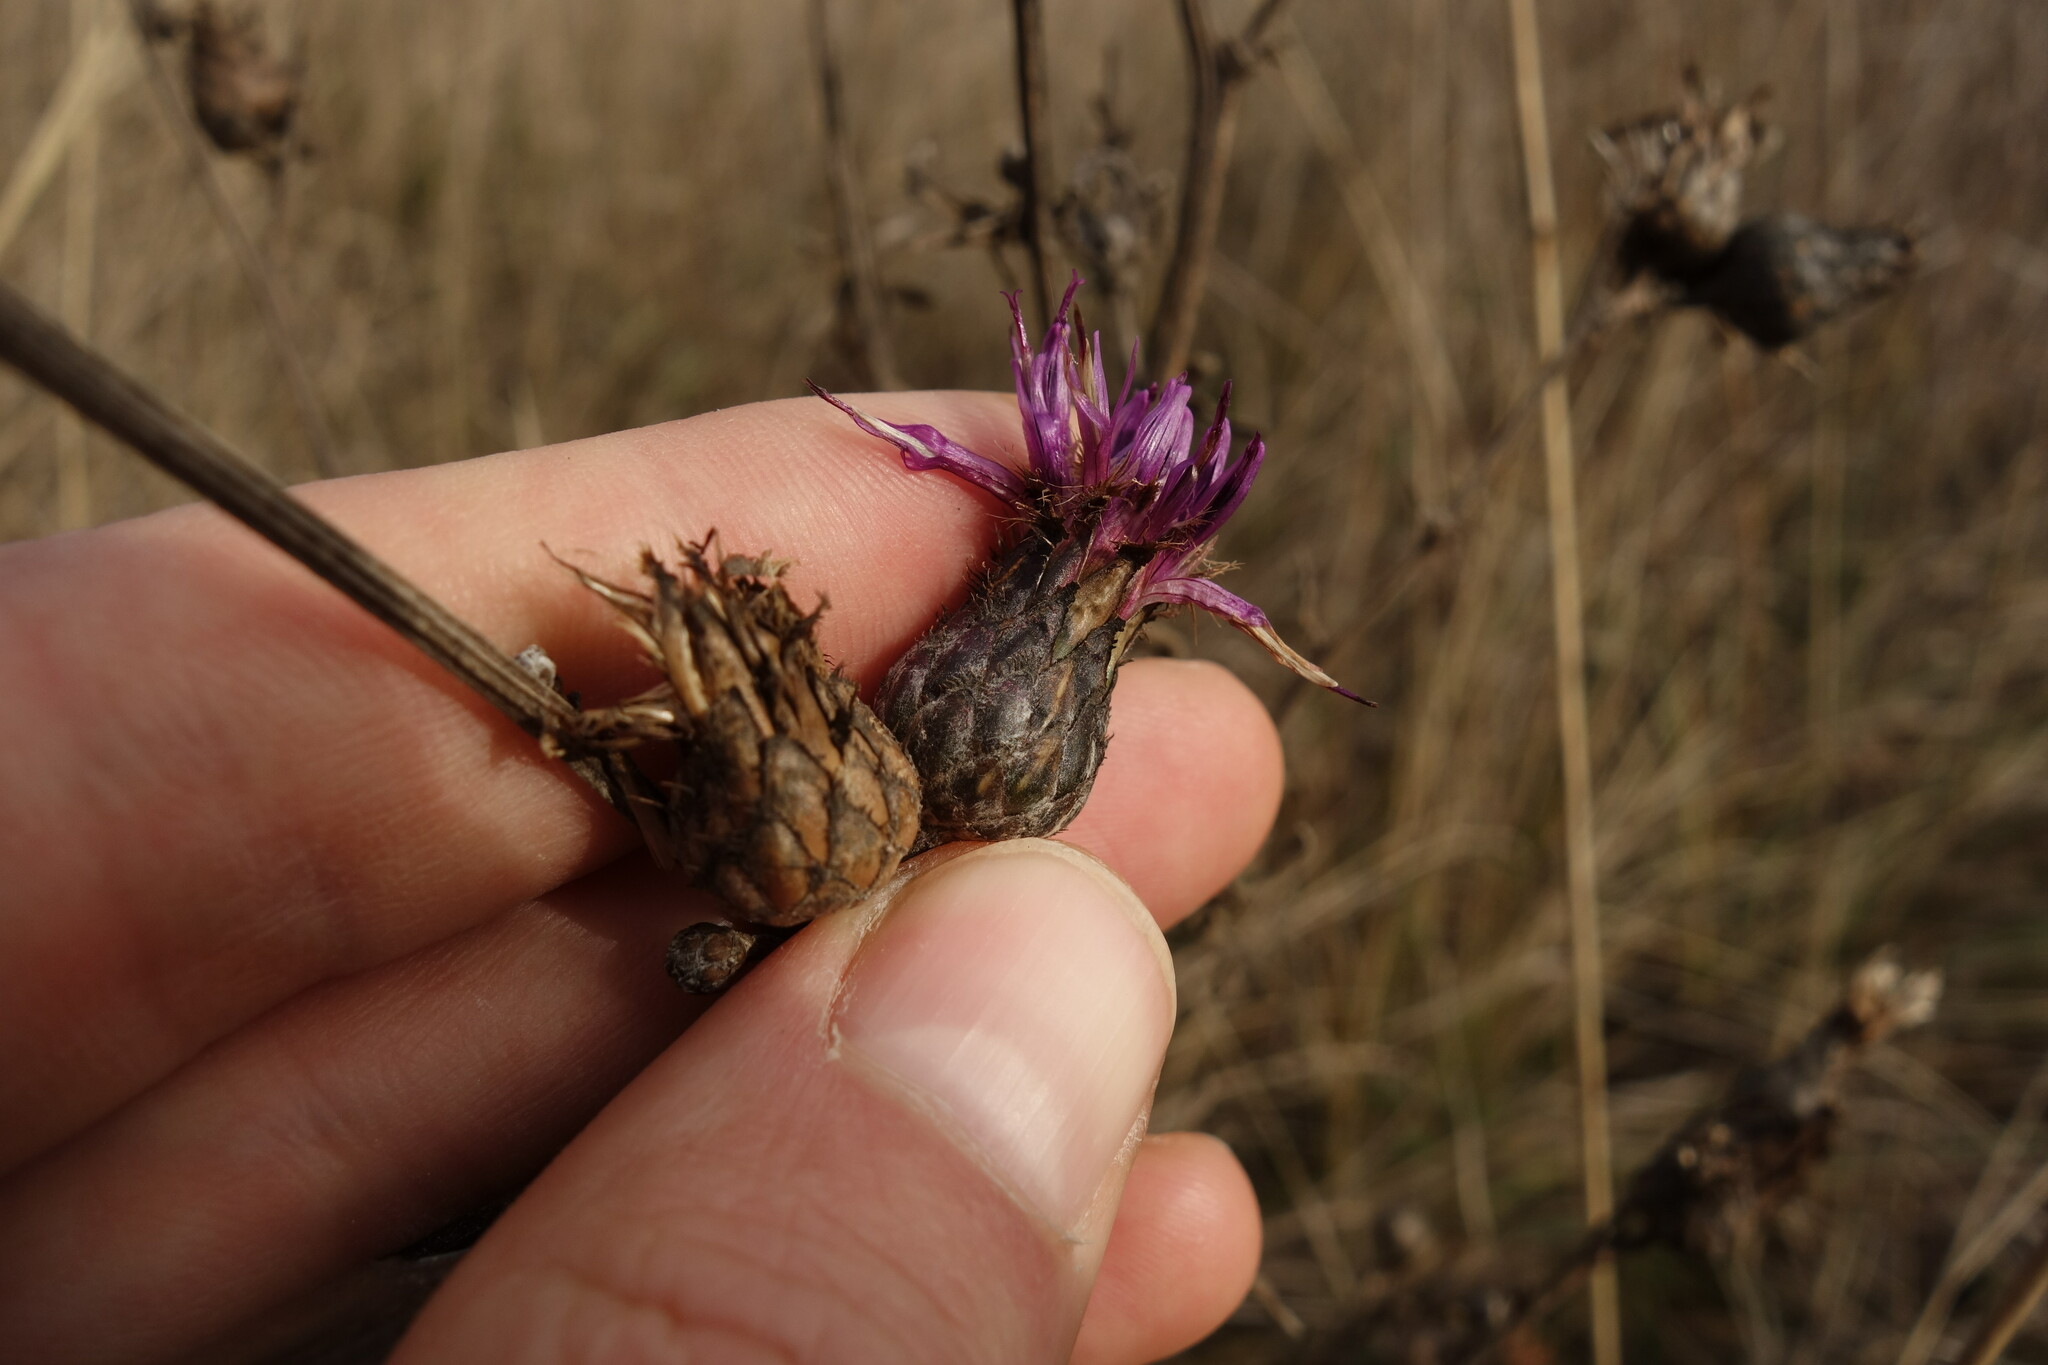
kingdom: Plantae
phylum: Tracheophyta
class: Magnoliopsida
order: Asterales
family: Asteraceae
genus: Centaurea
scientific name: Centaurea scabiosa
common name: Greater knapweed
